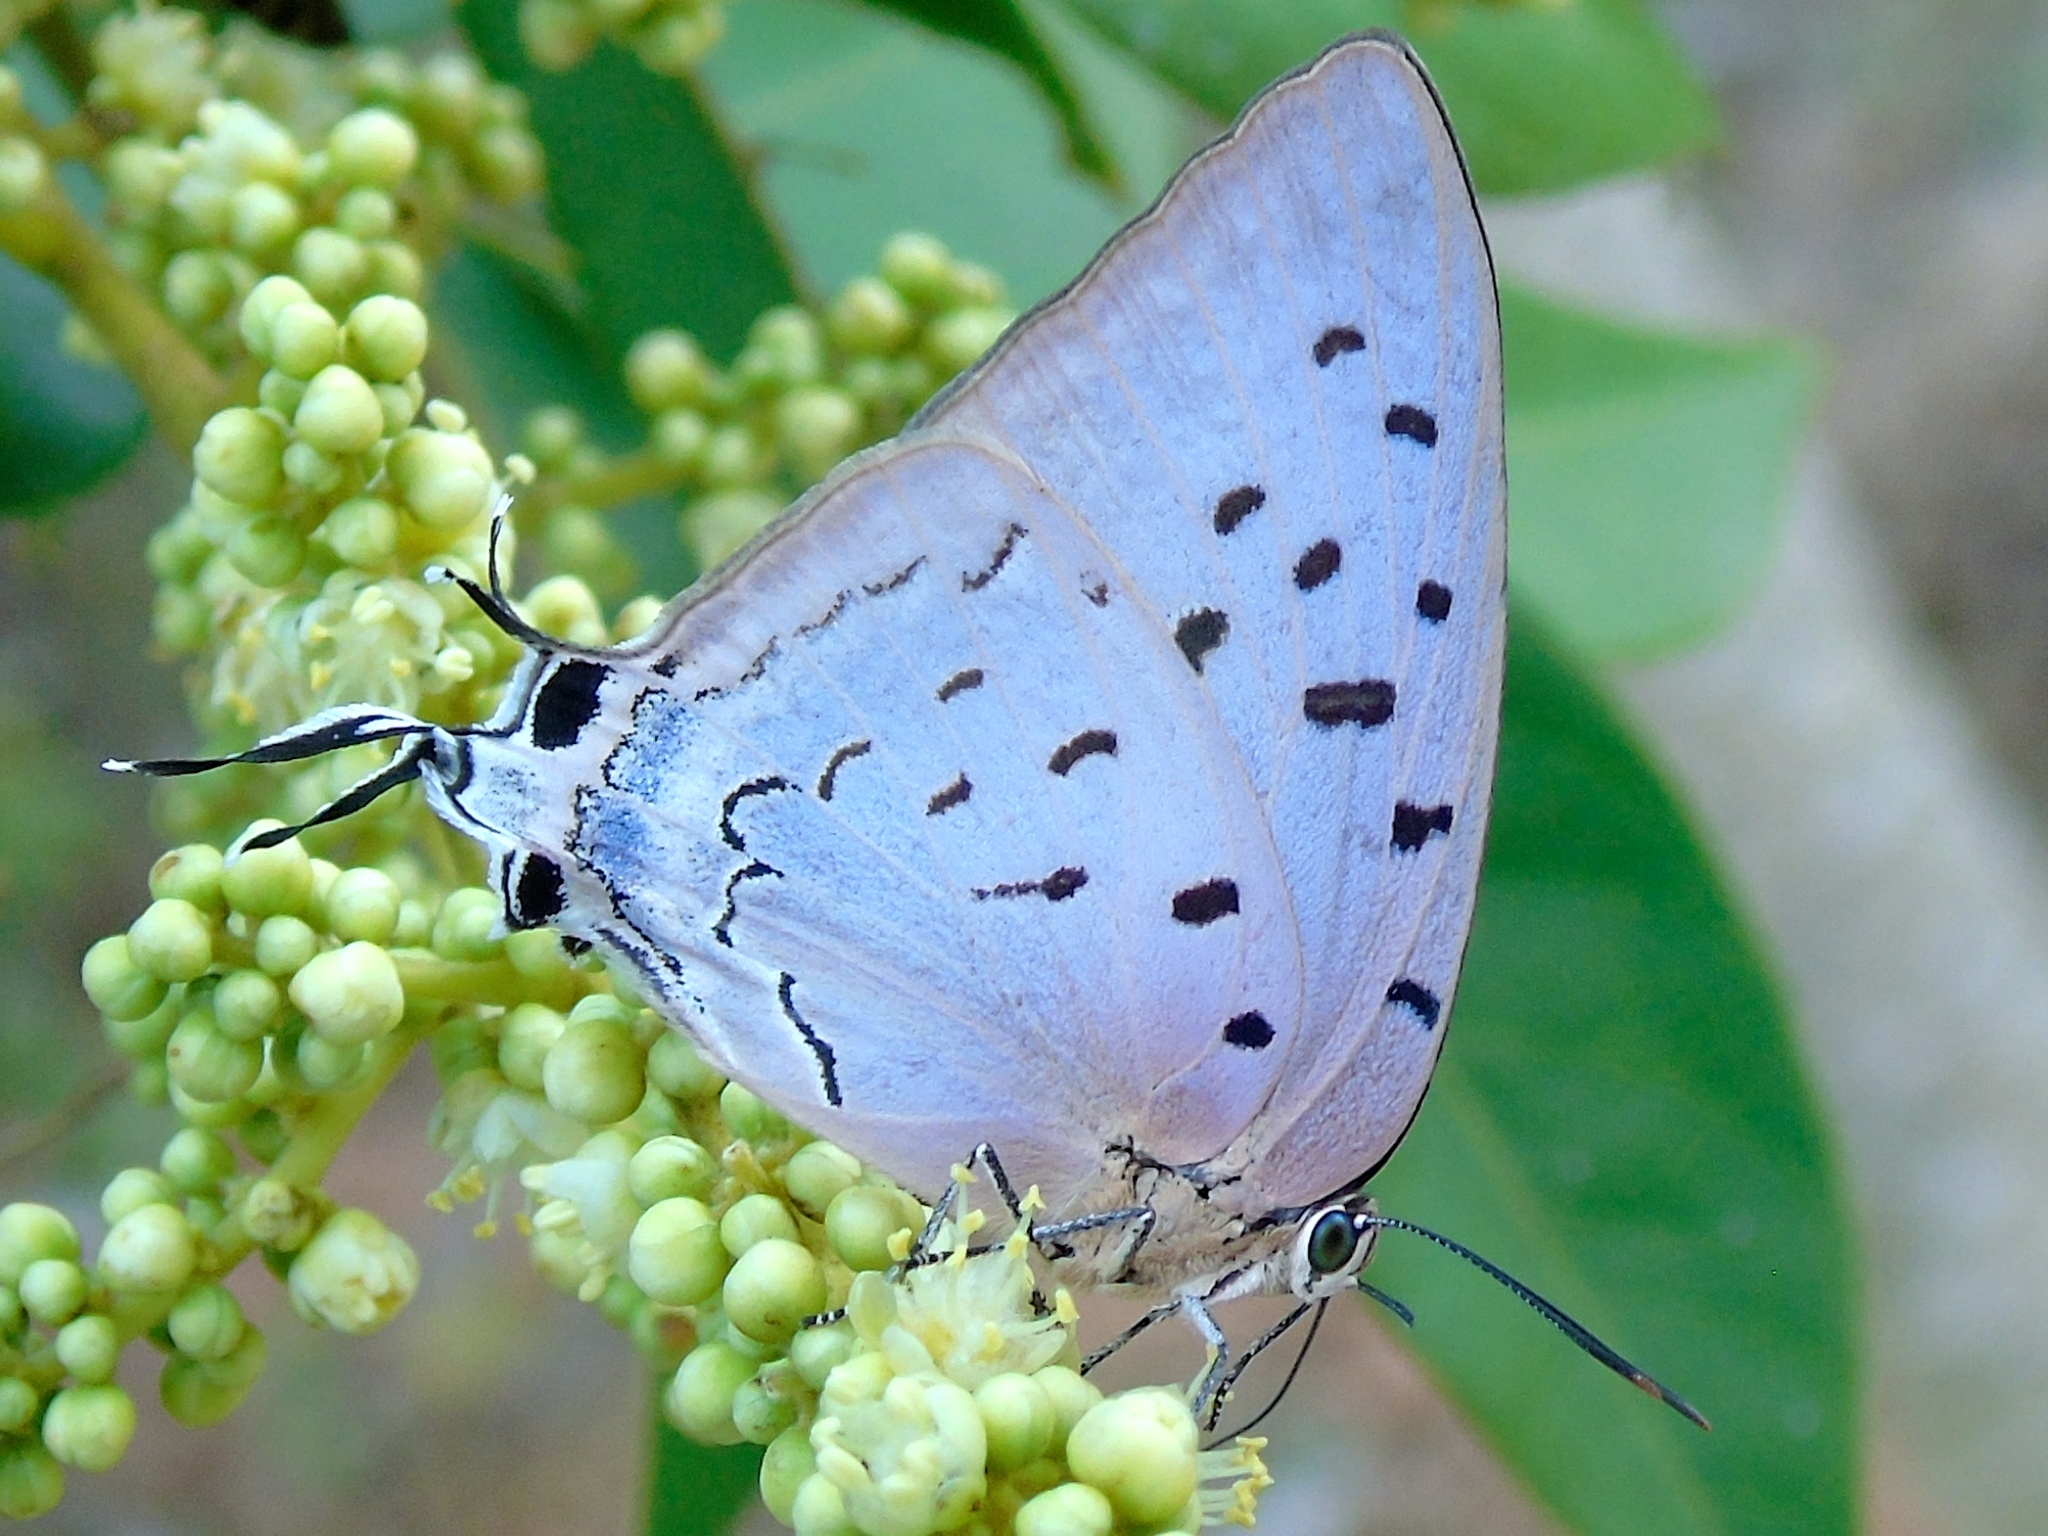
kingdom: Animalia
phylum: Arthropoda
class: Insecta
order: Lepidoptera
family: Lycaenidae
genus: Pseudolycaena
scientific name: Pseudolycaena damo
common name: Sky-blue hairstreak
